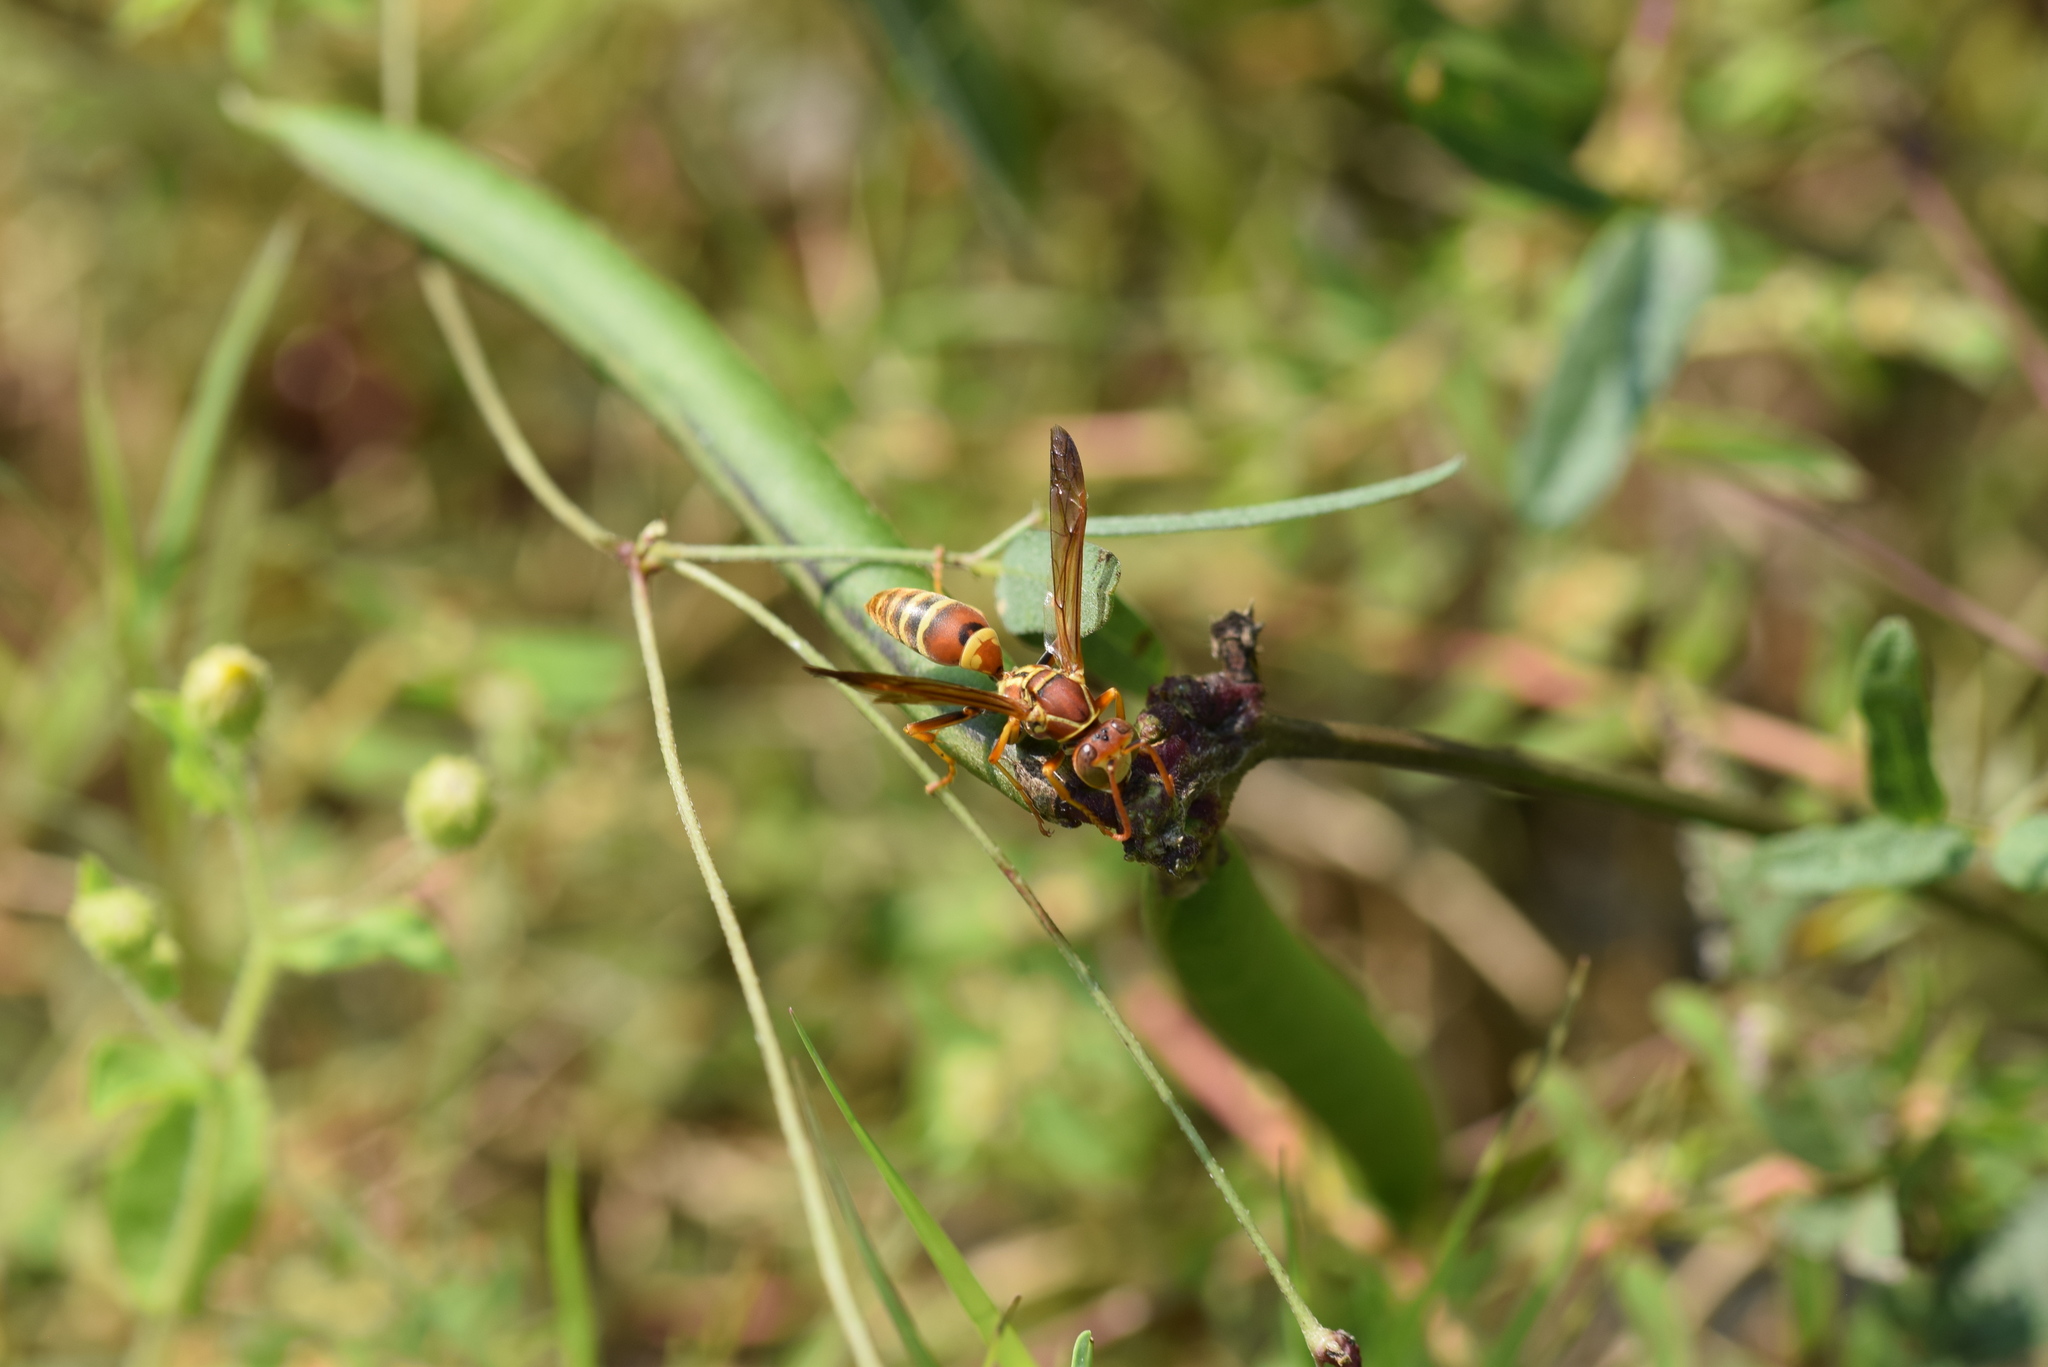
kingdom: Animalia
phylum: Arthropoda
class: Insecta
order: Hymenoptera
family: Eumenidae
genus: Polistes
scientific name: Polistes dorsalis
